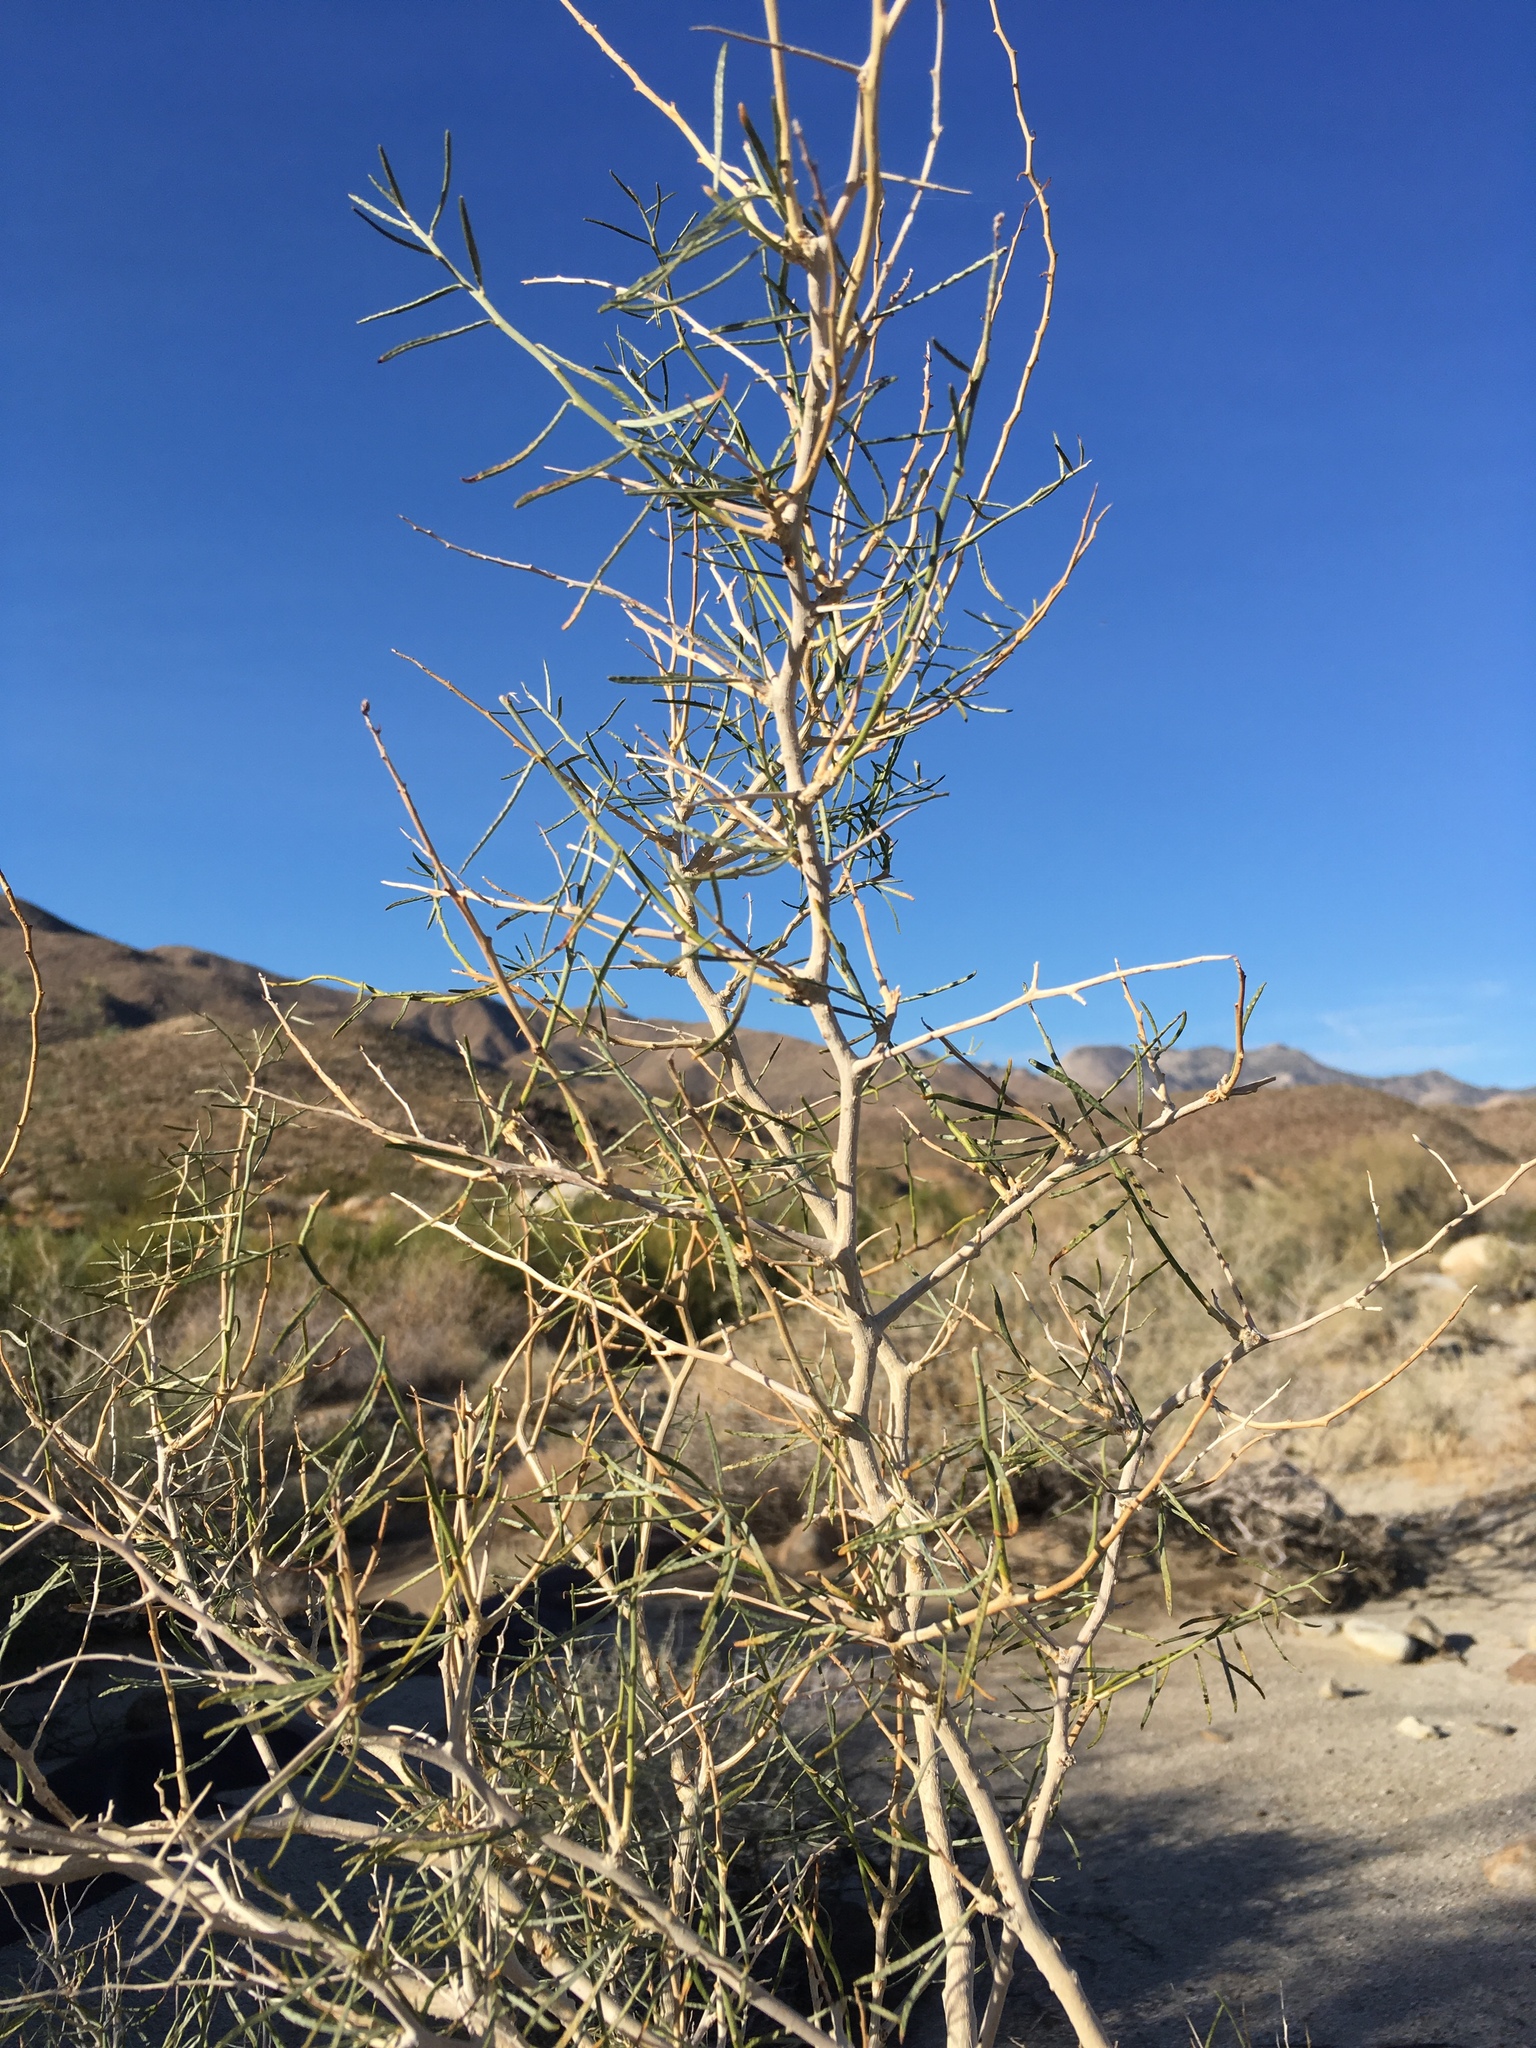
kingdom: Plantae
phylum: Tracheophyta
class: Magnoliopsida
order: Fabales
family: Fabaceae
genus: Psorothamnus
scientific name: Psorothamnus schottii
